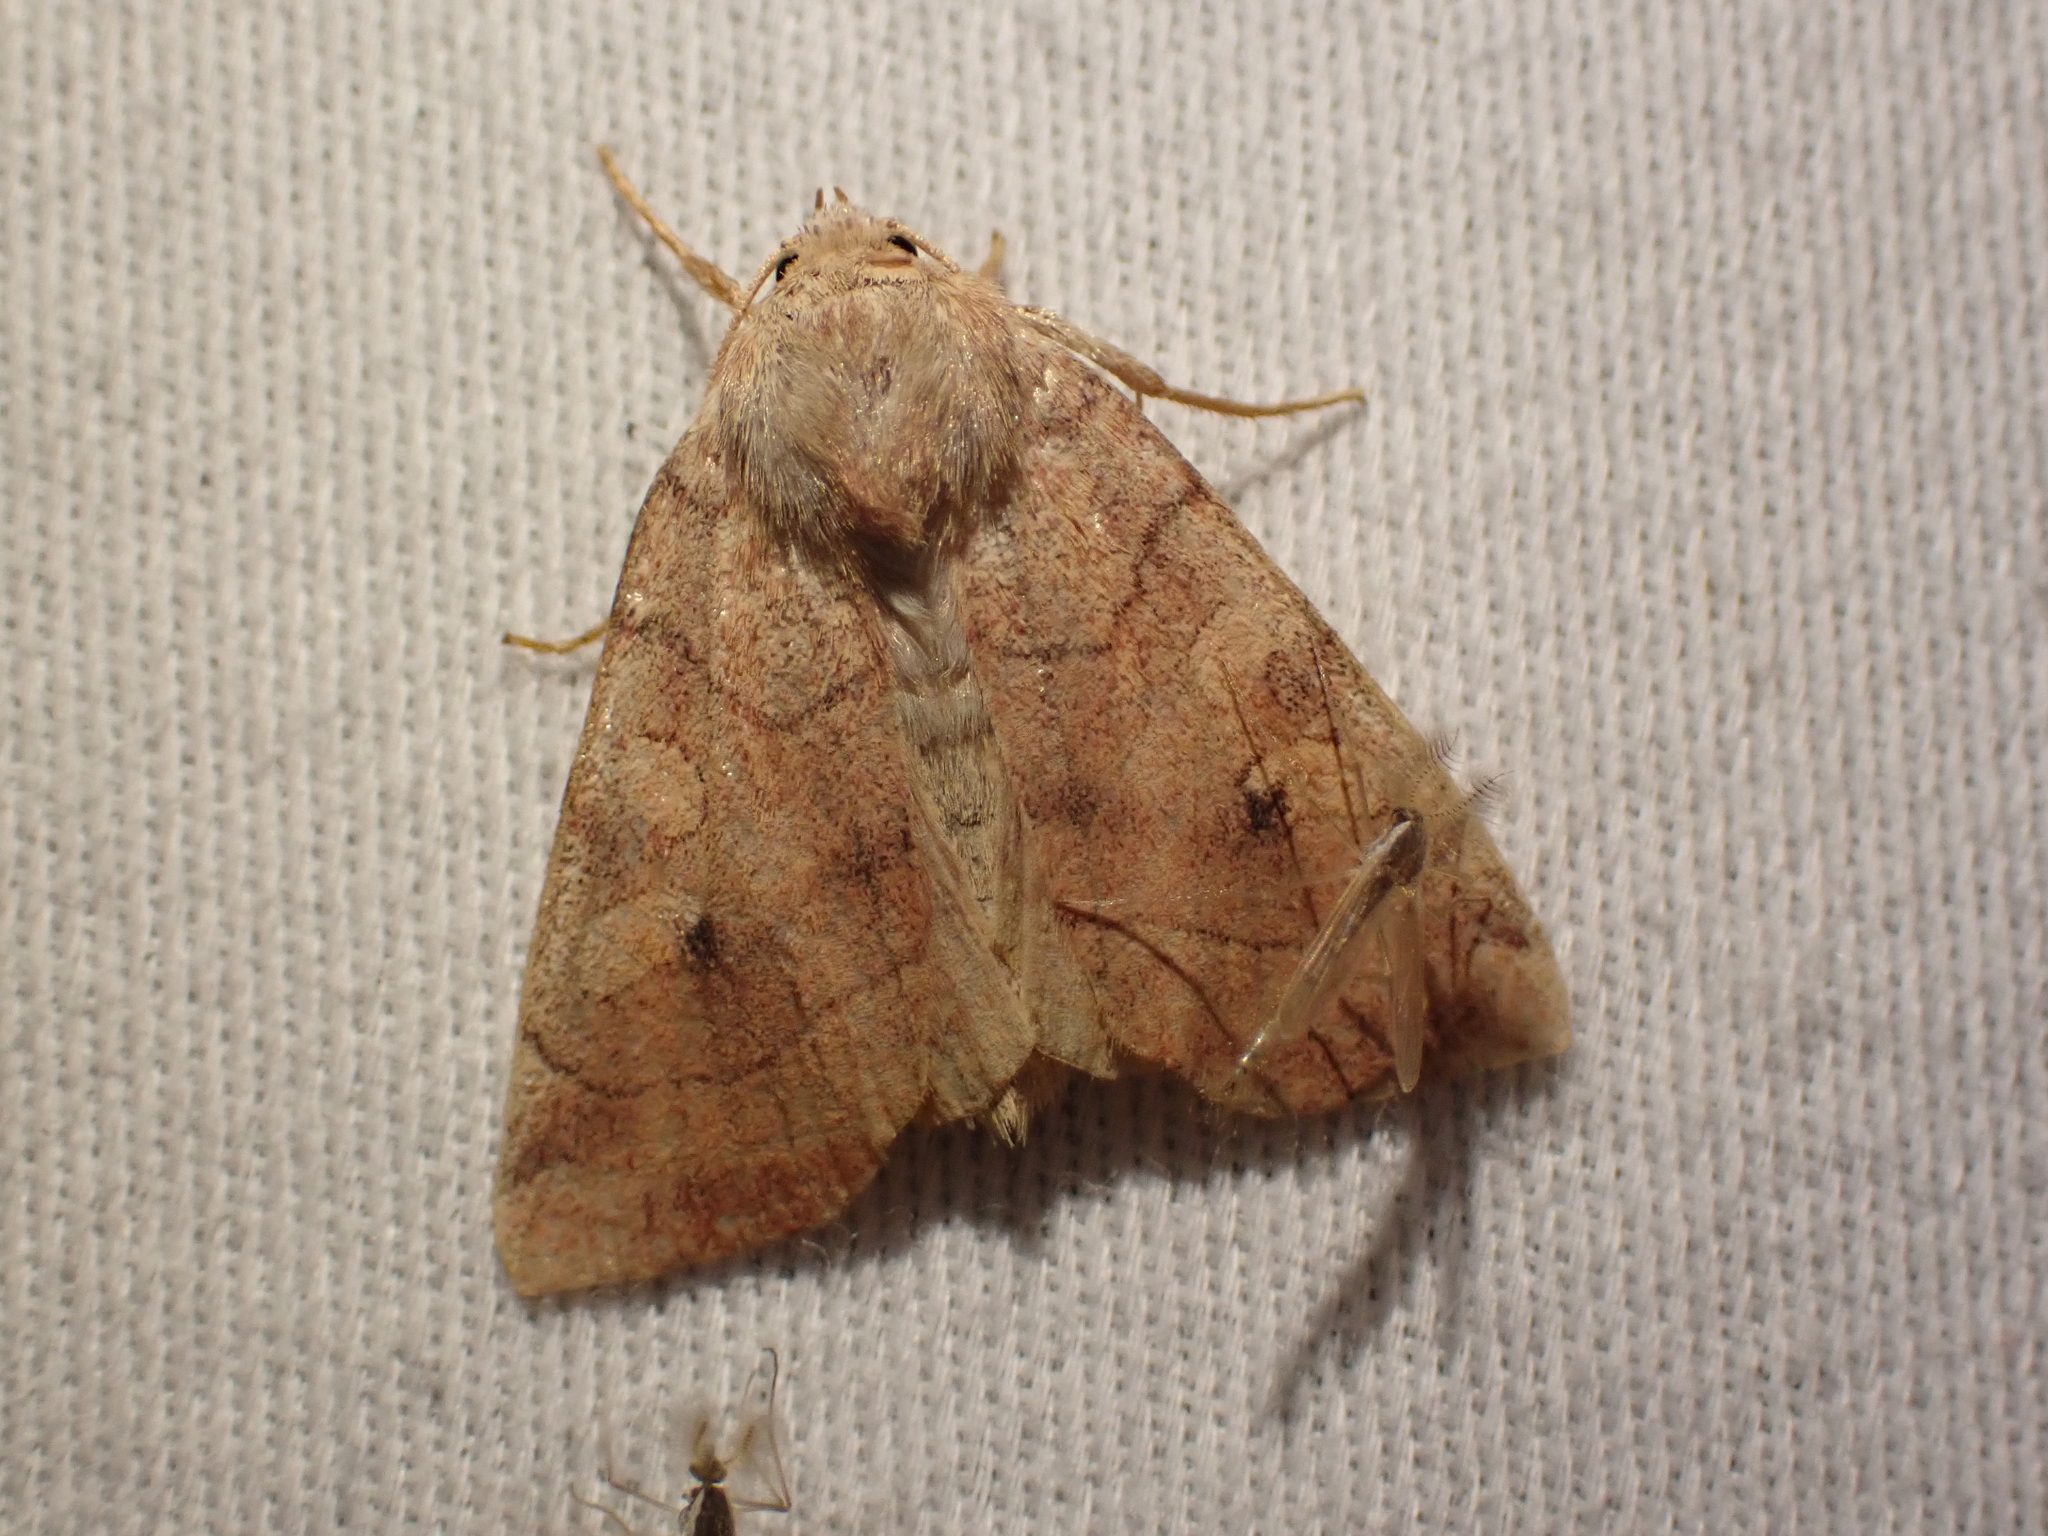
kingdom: Animalia
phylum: Arthropoda
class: Insecta
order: Lepidoptera
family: Noctuidae
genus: Enargia
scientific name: Enargia infumata
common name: Smoked sallow
